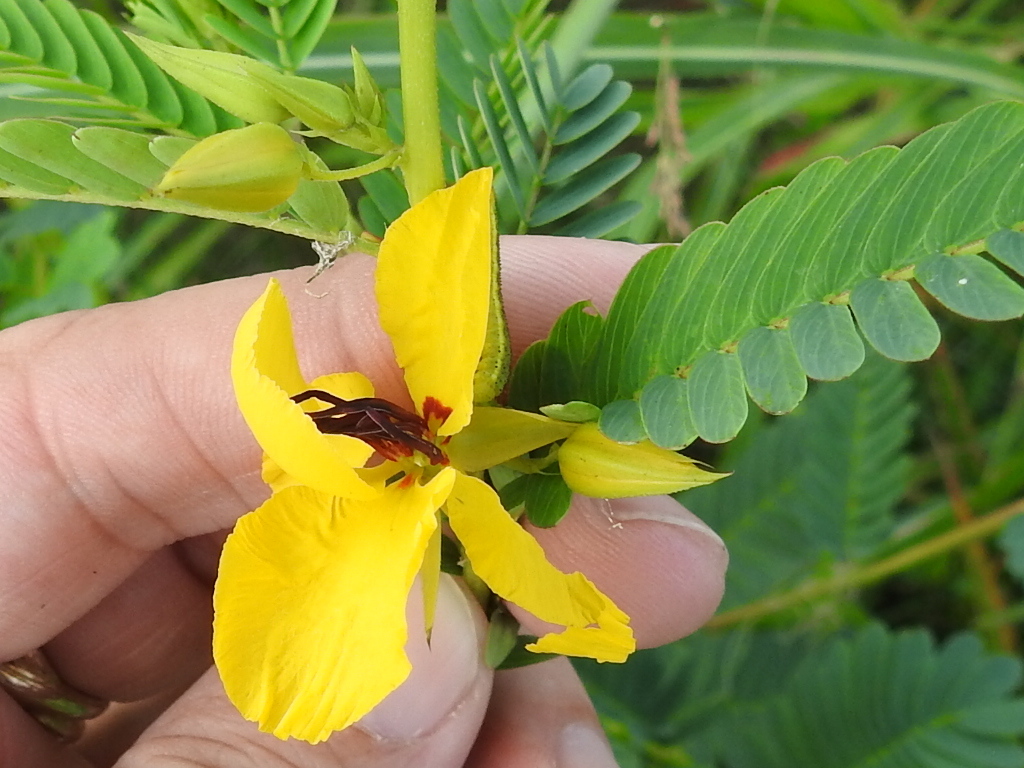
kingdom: Plantae
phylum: Tracheophyta
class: Magnoliopsida
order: Fabales
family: Fabaceae
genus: Chamaecrista
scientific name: Chamaecrista fasciculata
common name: Golden cassia
